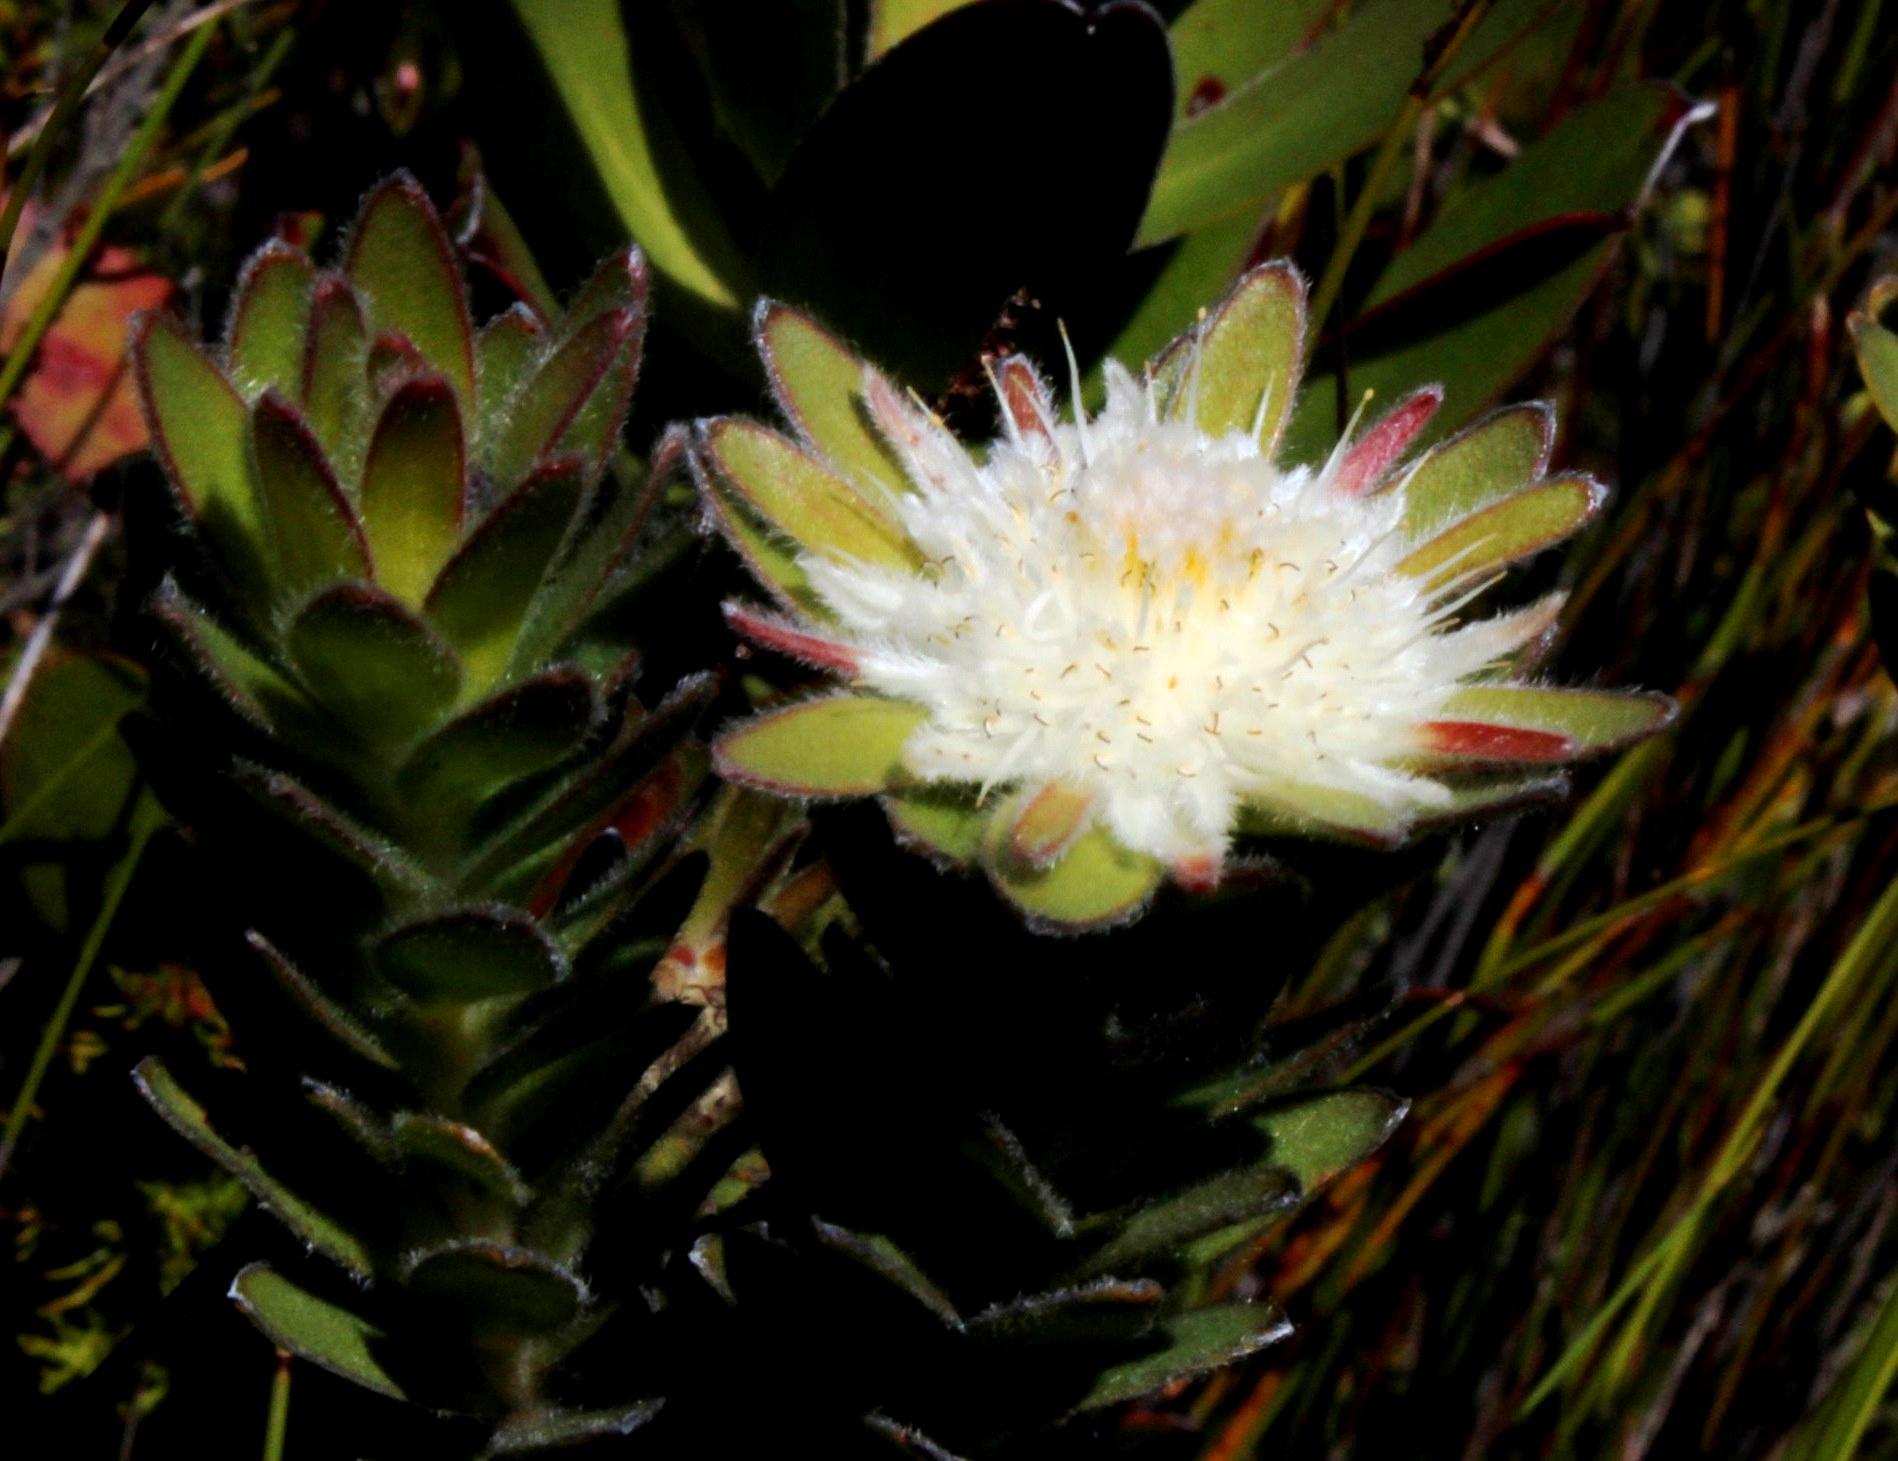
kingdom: Plantae
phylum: Tracheophyta
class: Magnoliopsida
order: Proteales
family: Proteaceae
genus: Diastella
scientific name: Diastella thymelaeoides
